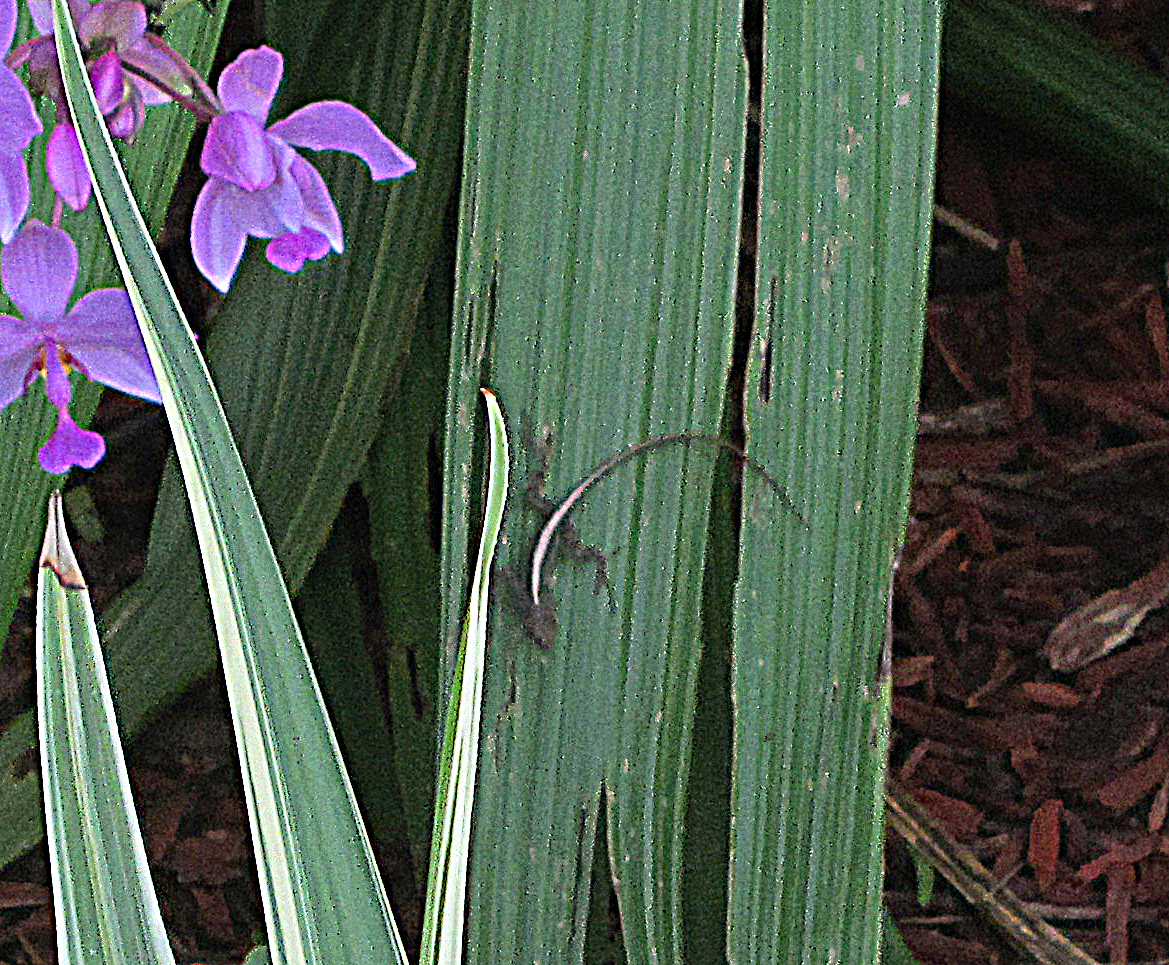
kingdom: Animalia
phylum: Chordata
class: Squamata
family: Dactyloidae
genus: Anolis
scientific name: Anolis
